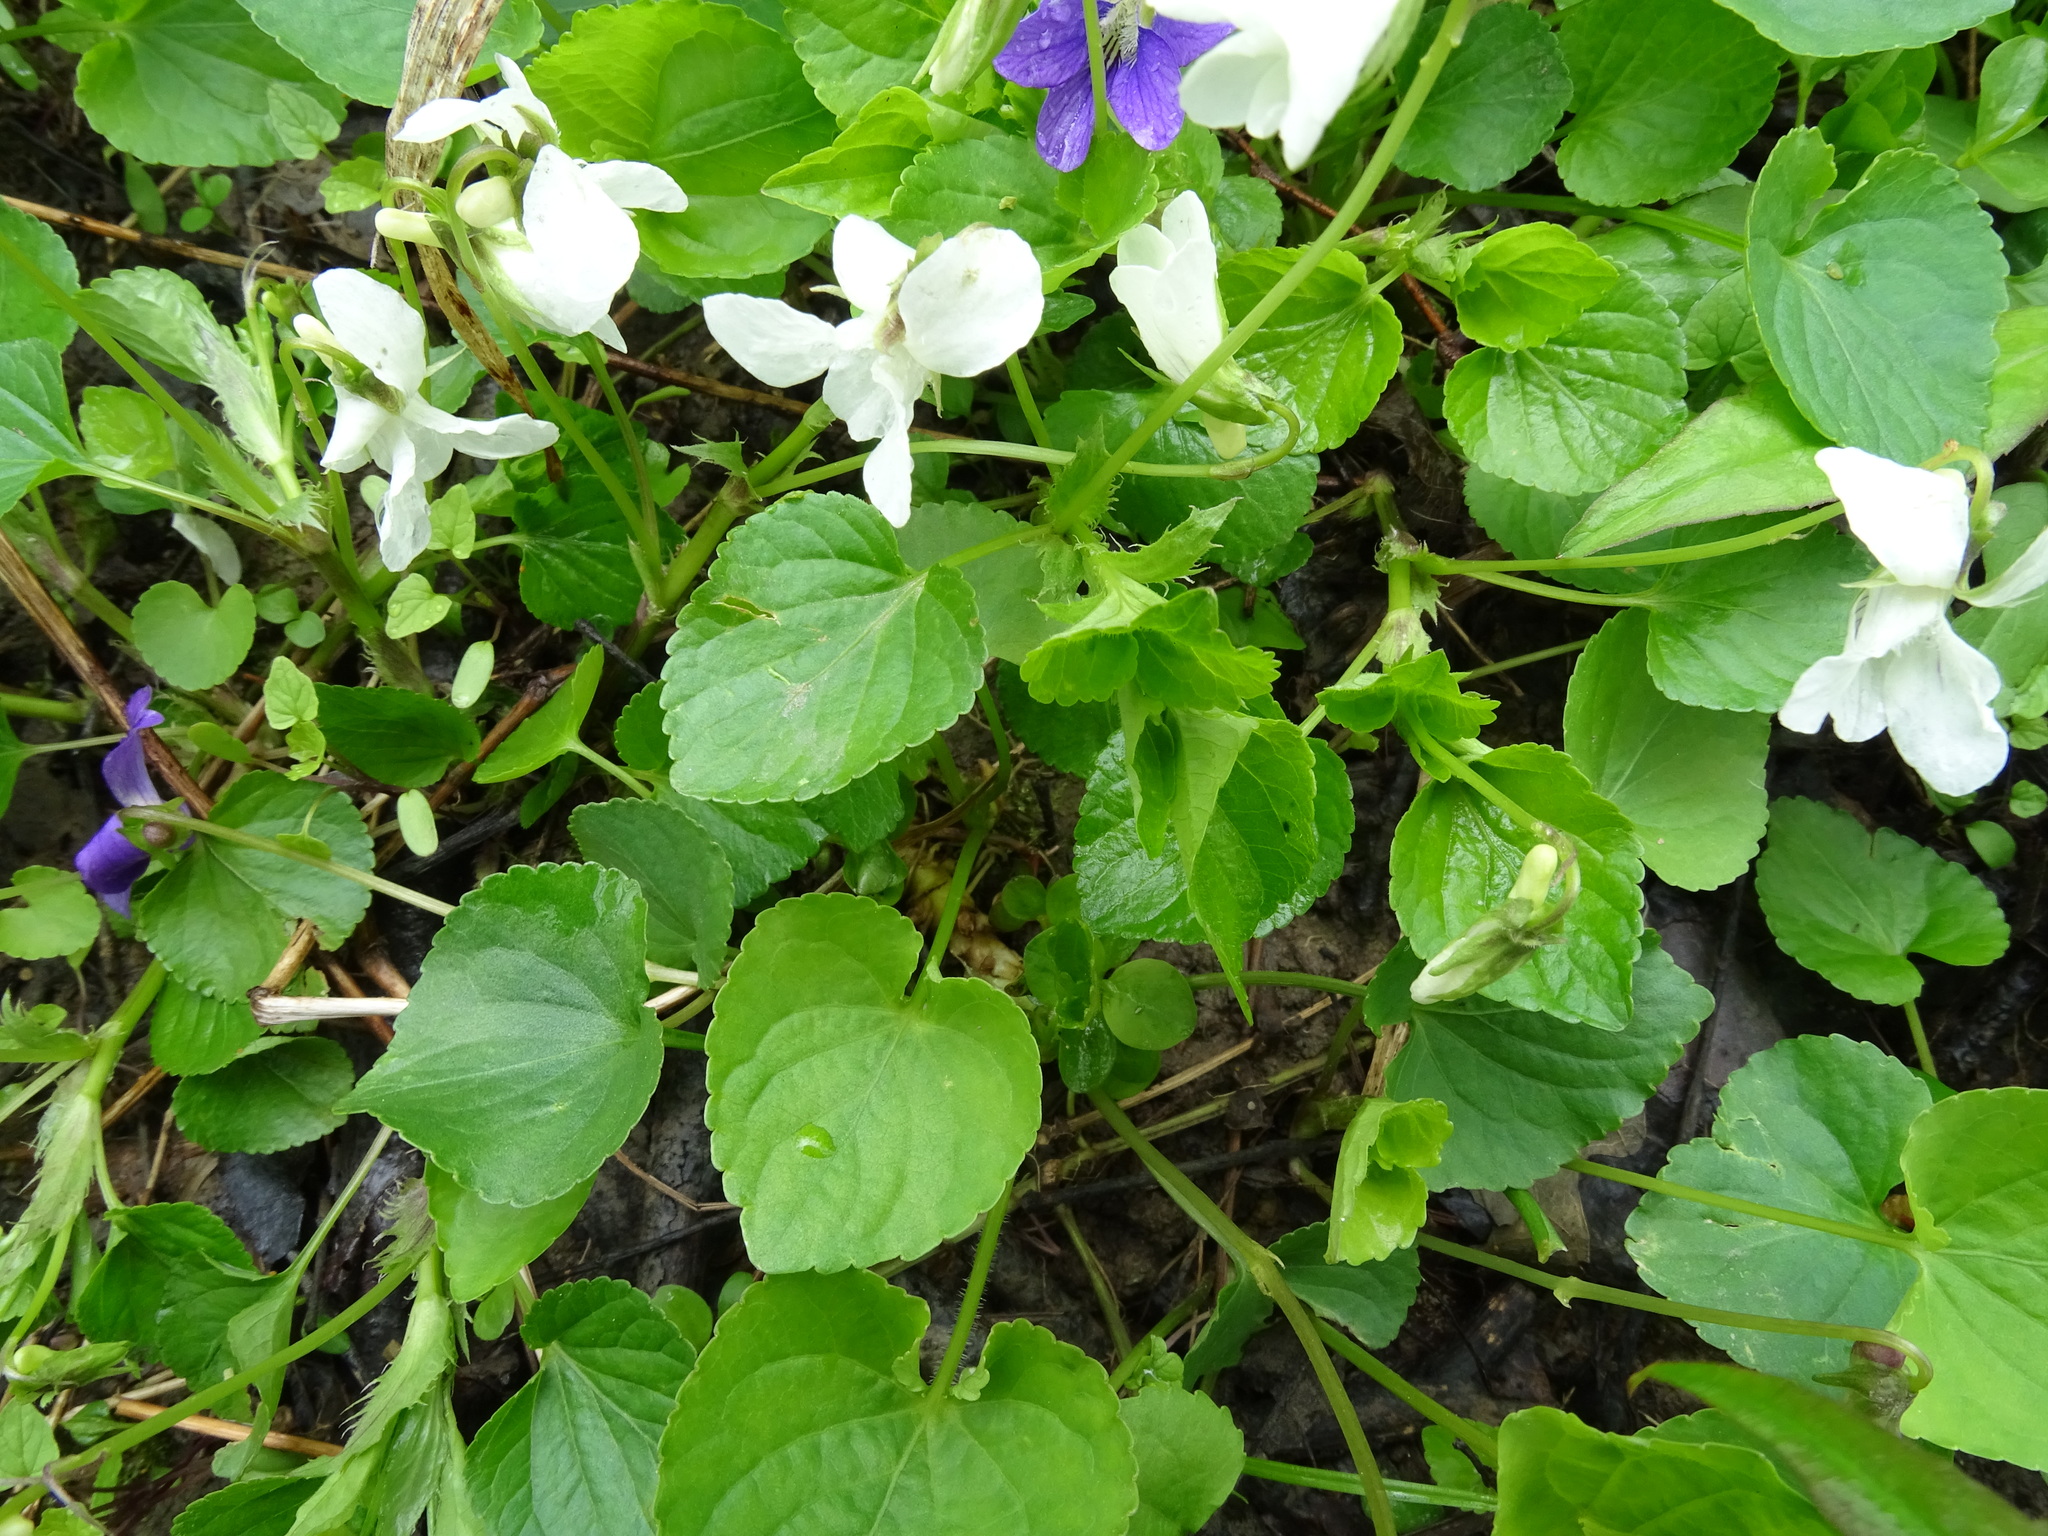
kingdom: Plantae
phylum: Tracheophyta
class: Magnoliopsida
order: Malpighiales
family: Violaceae
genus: Viola
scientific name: Viola striata
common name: Cream violet
